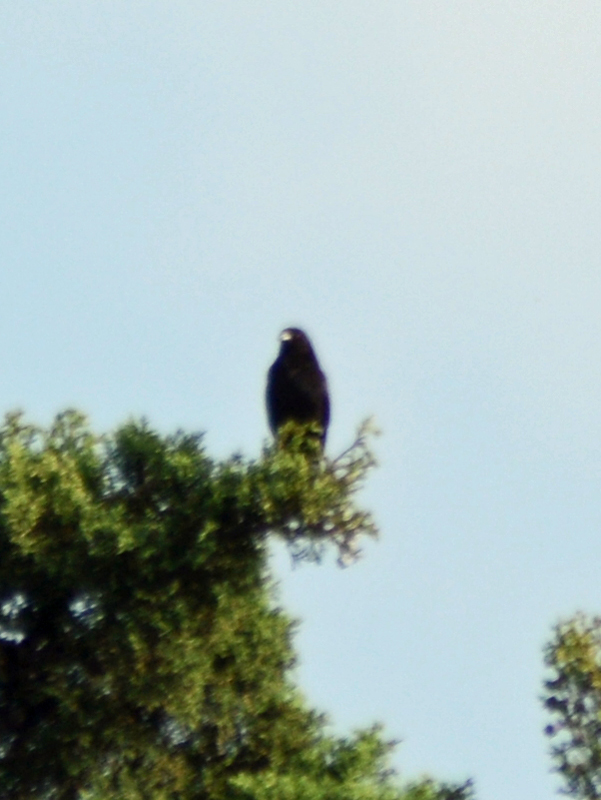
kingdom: Animalia
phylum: Chordata
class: Aves
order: Passeriformes
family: Icteridae
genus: Molothrus
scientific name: Molothrus aeneus
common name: Bronzed cowbird
